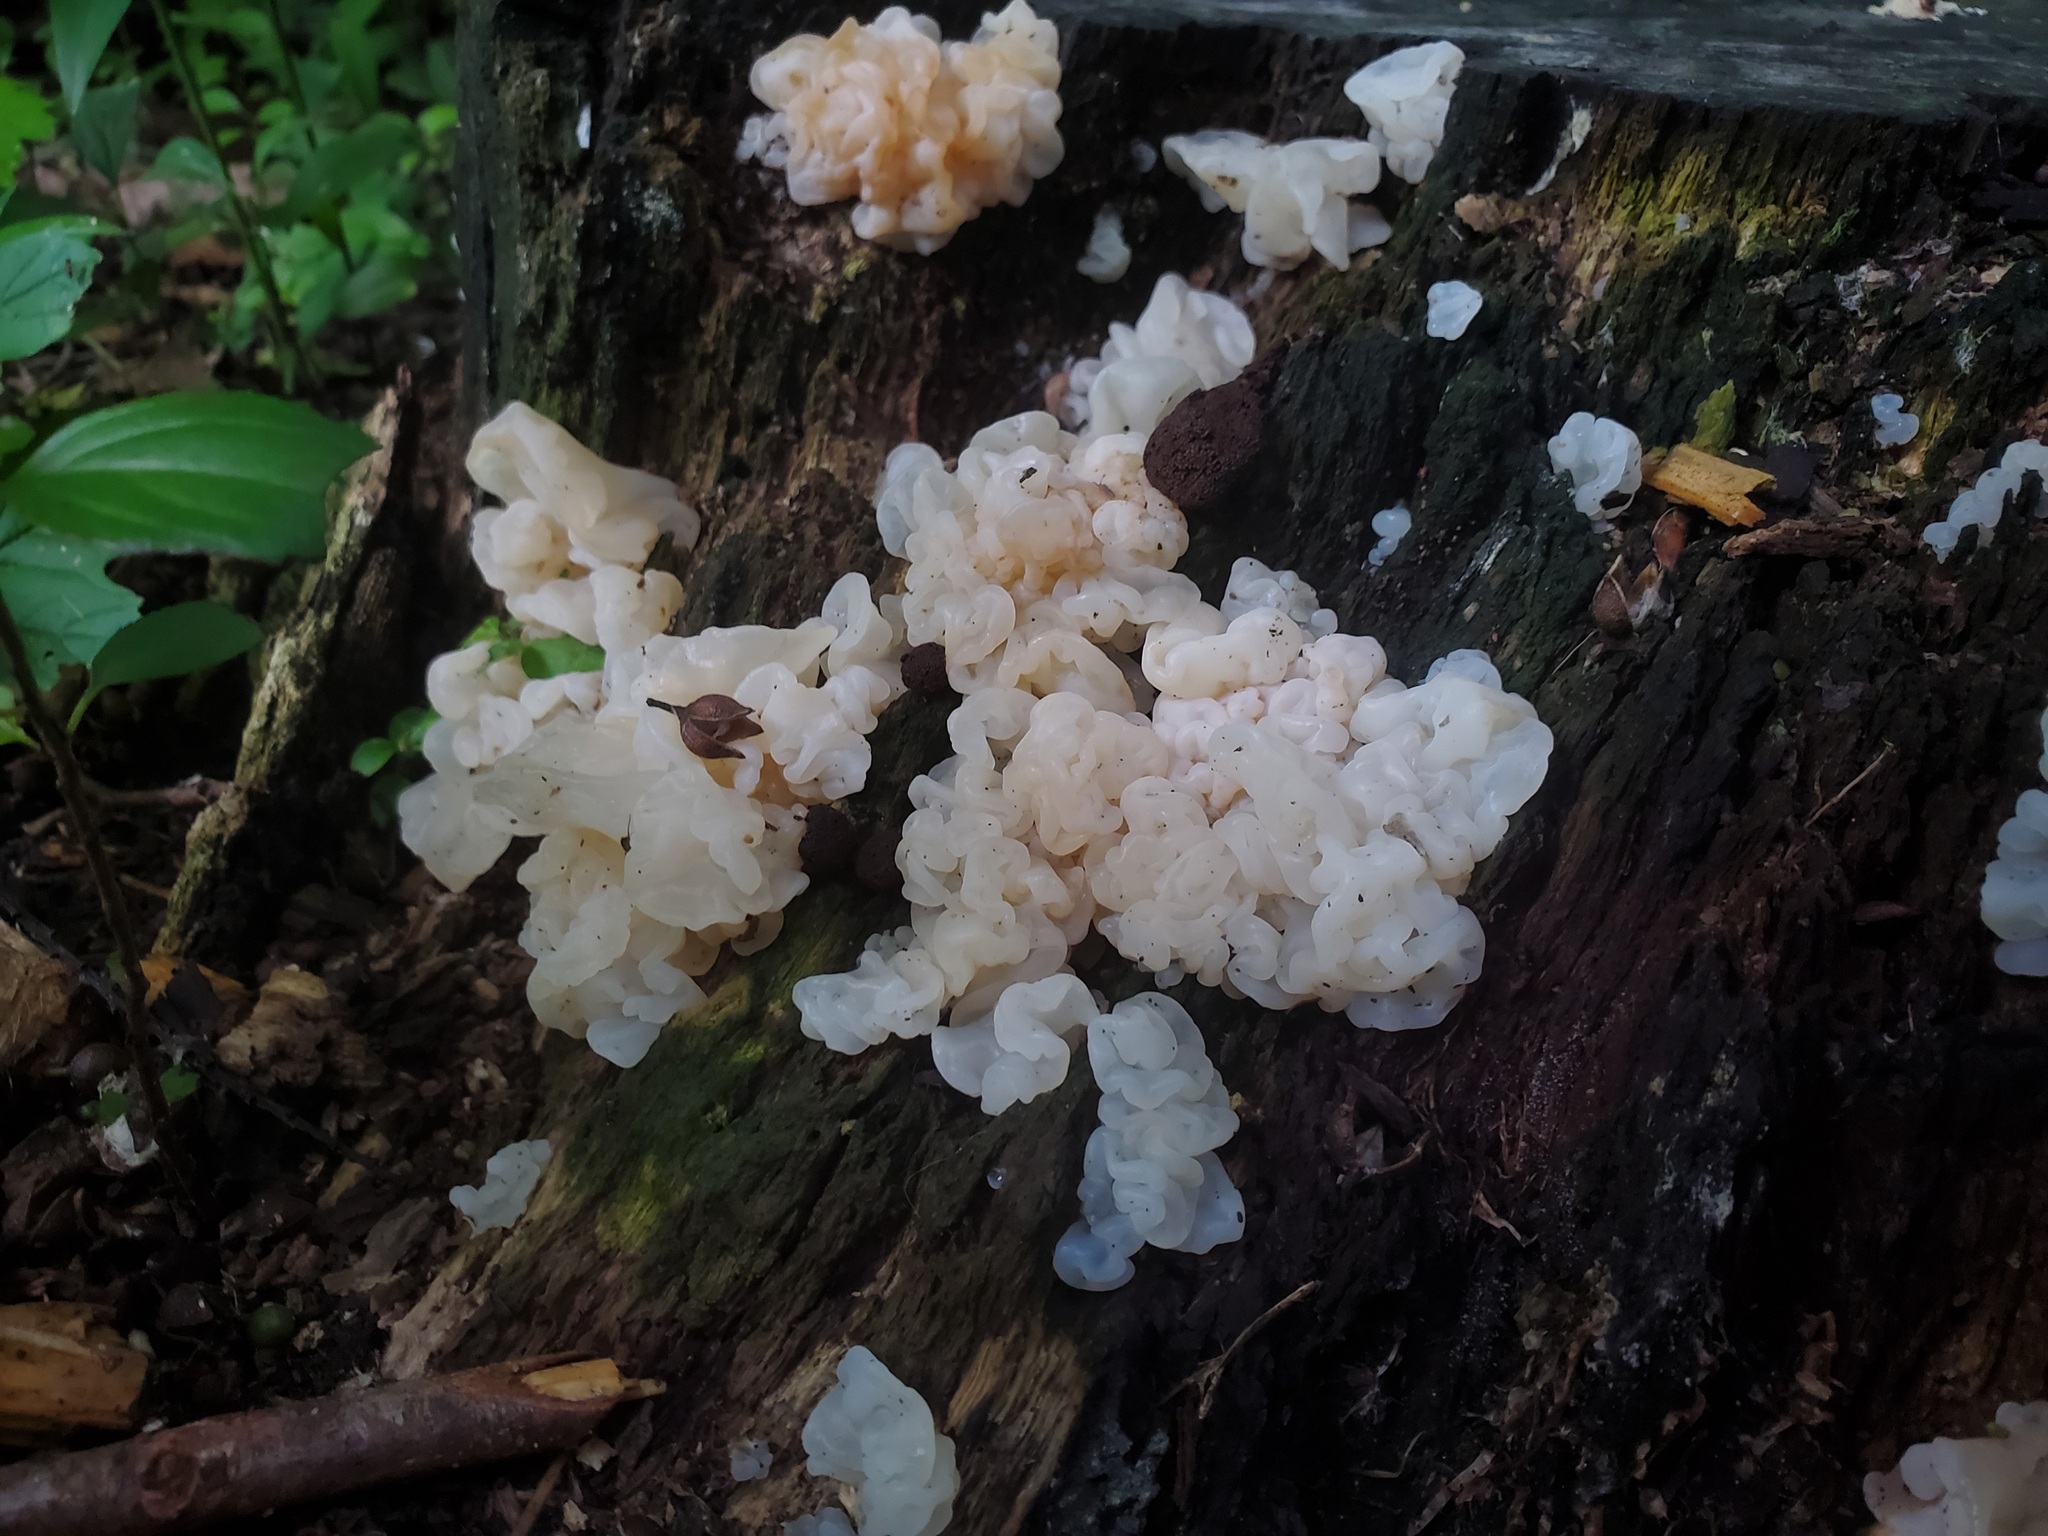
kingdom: Fungi
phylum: Basidiomycota
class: Agaricomycetes
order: Auriculariales
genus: Ductifera
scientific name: Ductifera pululahuana
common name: White jelly fungus
